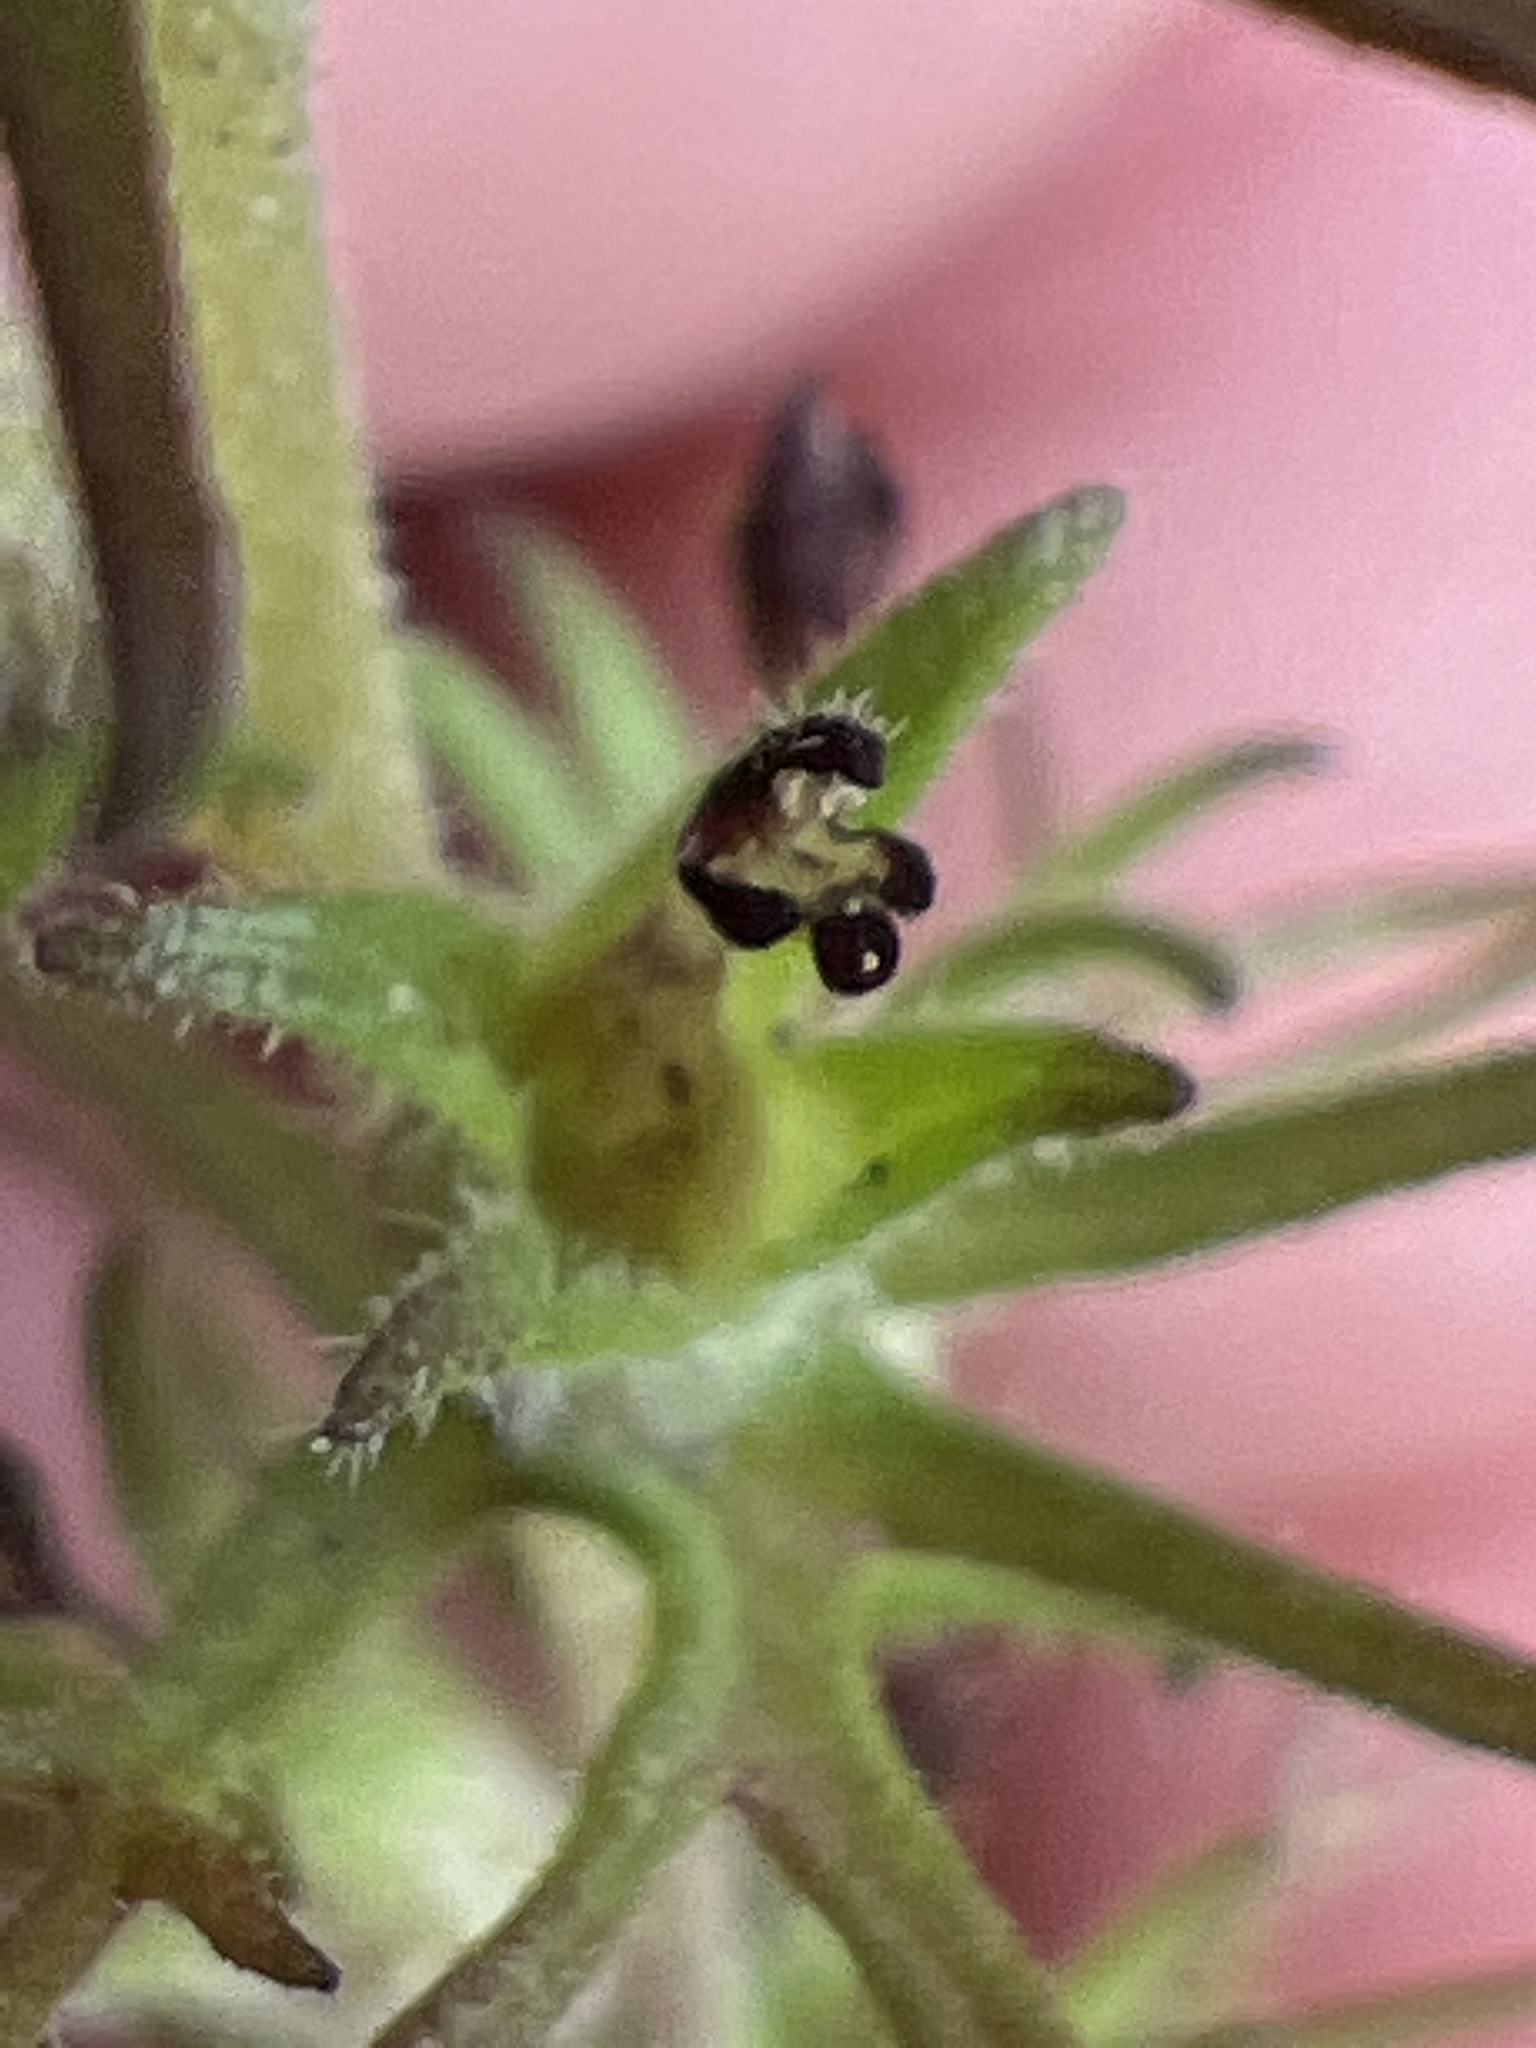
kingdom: Plantae
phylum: Tracheophyta
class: Magnoliopsida
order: Lamiales
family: Orobanchaceae
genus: Triphysaria
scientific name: Triphysaria pusilla
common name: Dwarf false owl-clover
